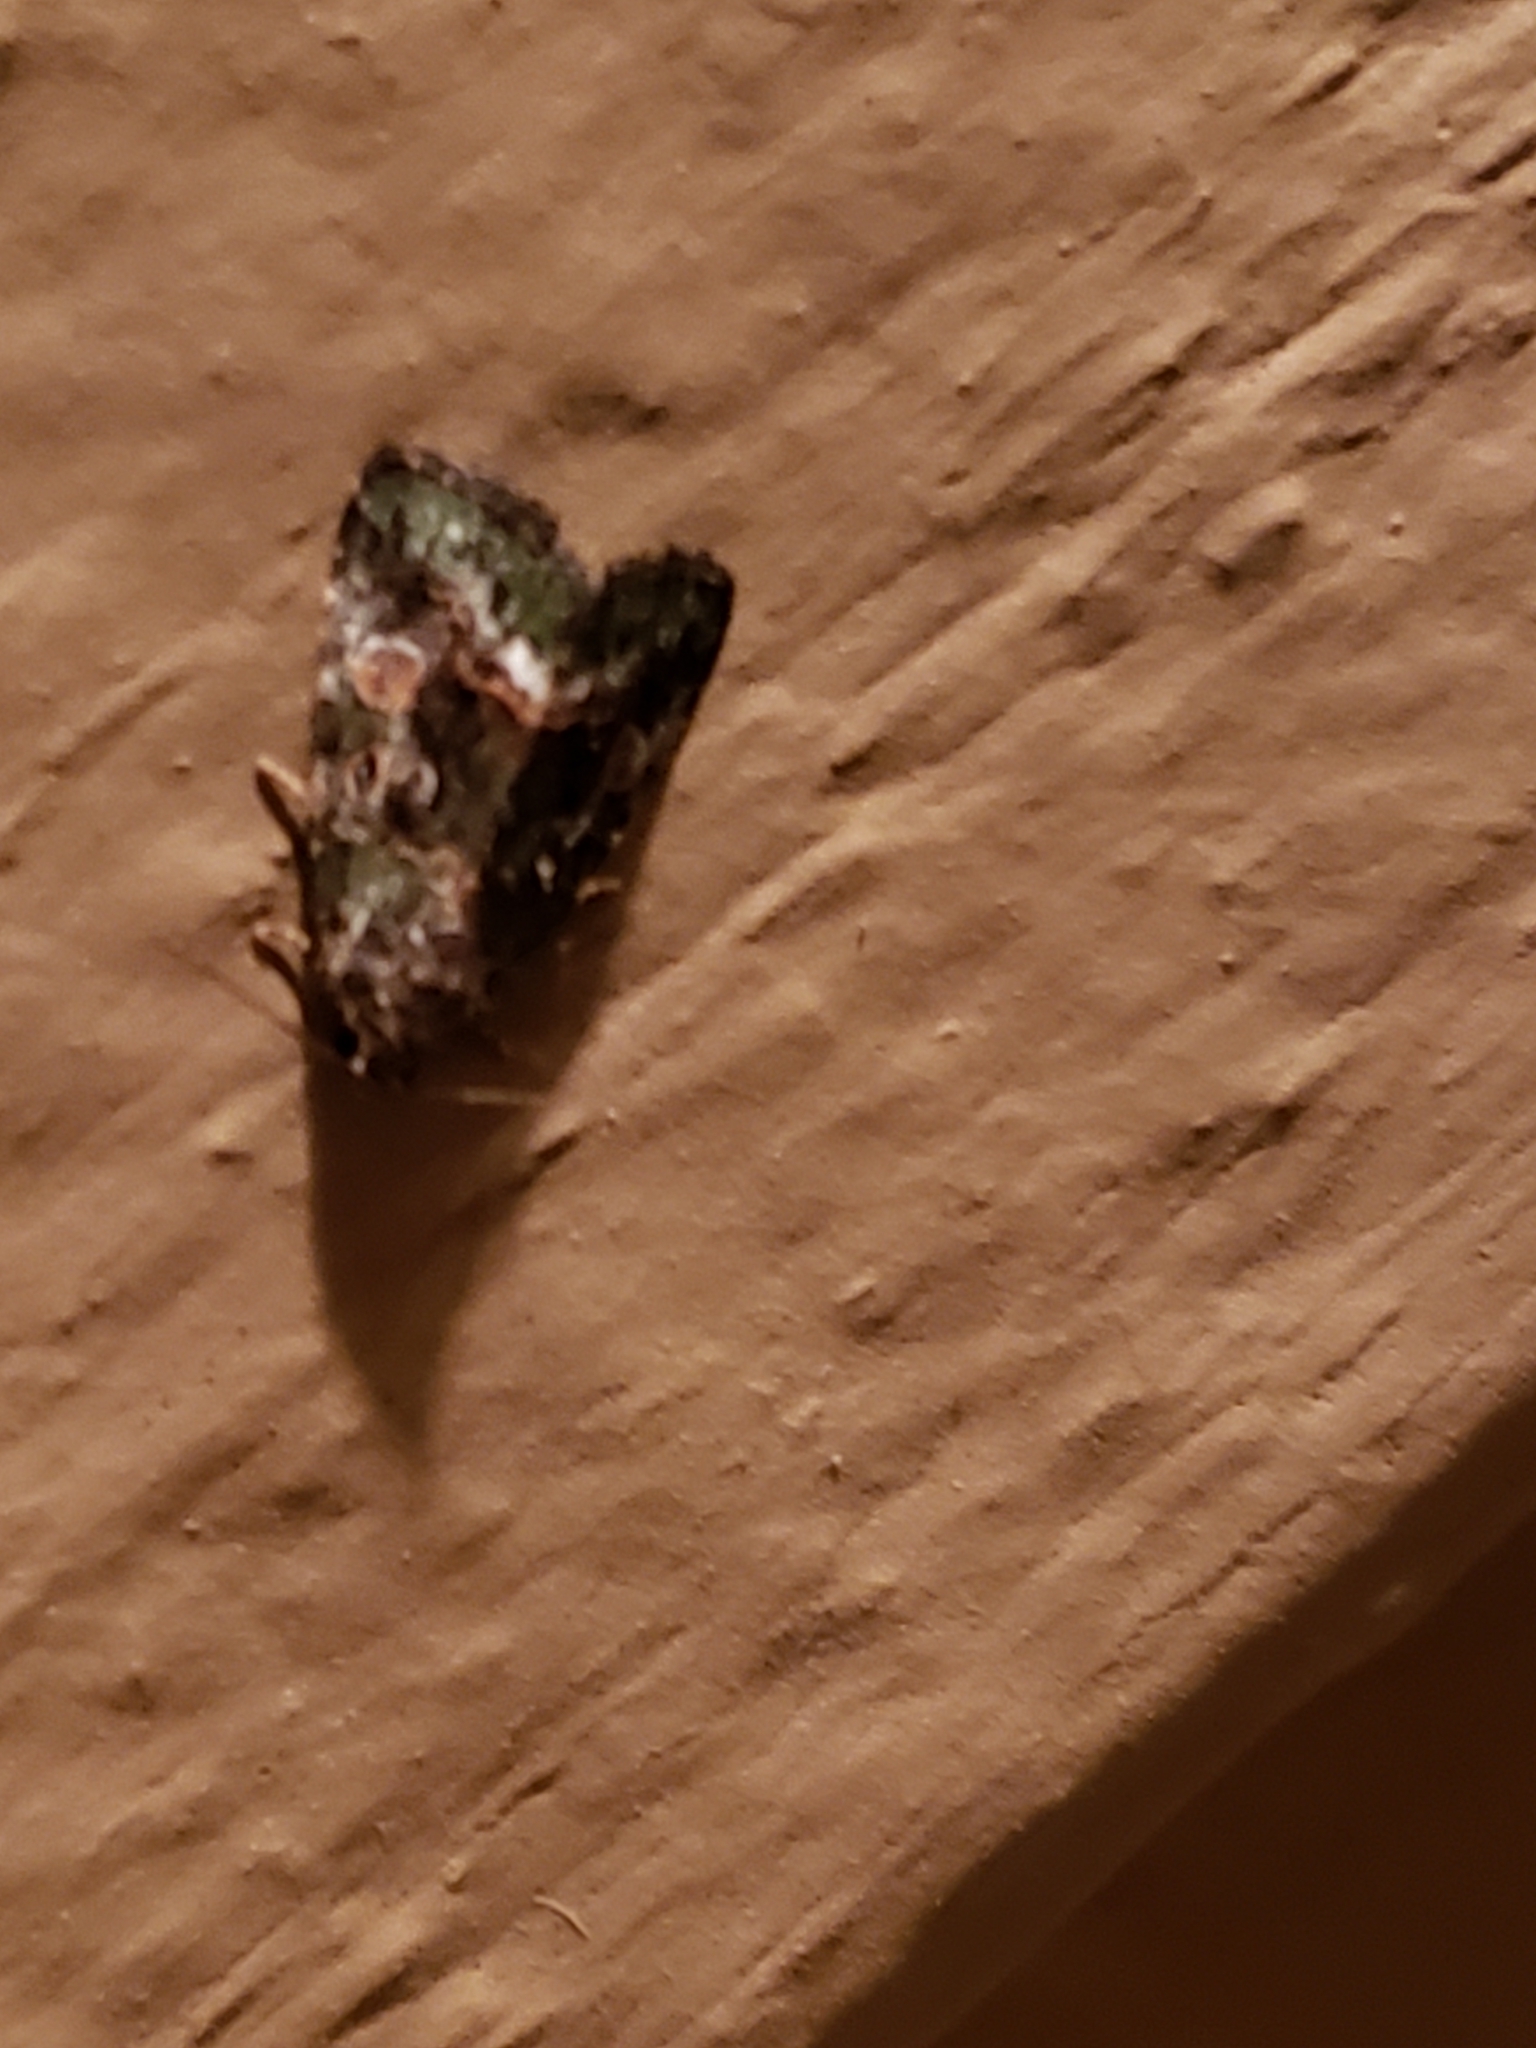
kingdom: Animalia
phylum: Arthropoda
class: Insecta
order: Lepidoptera
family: Noctuidae
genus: Lithacodia
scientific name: Lithacodia musta
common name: Small mossy glyph
